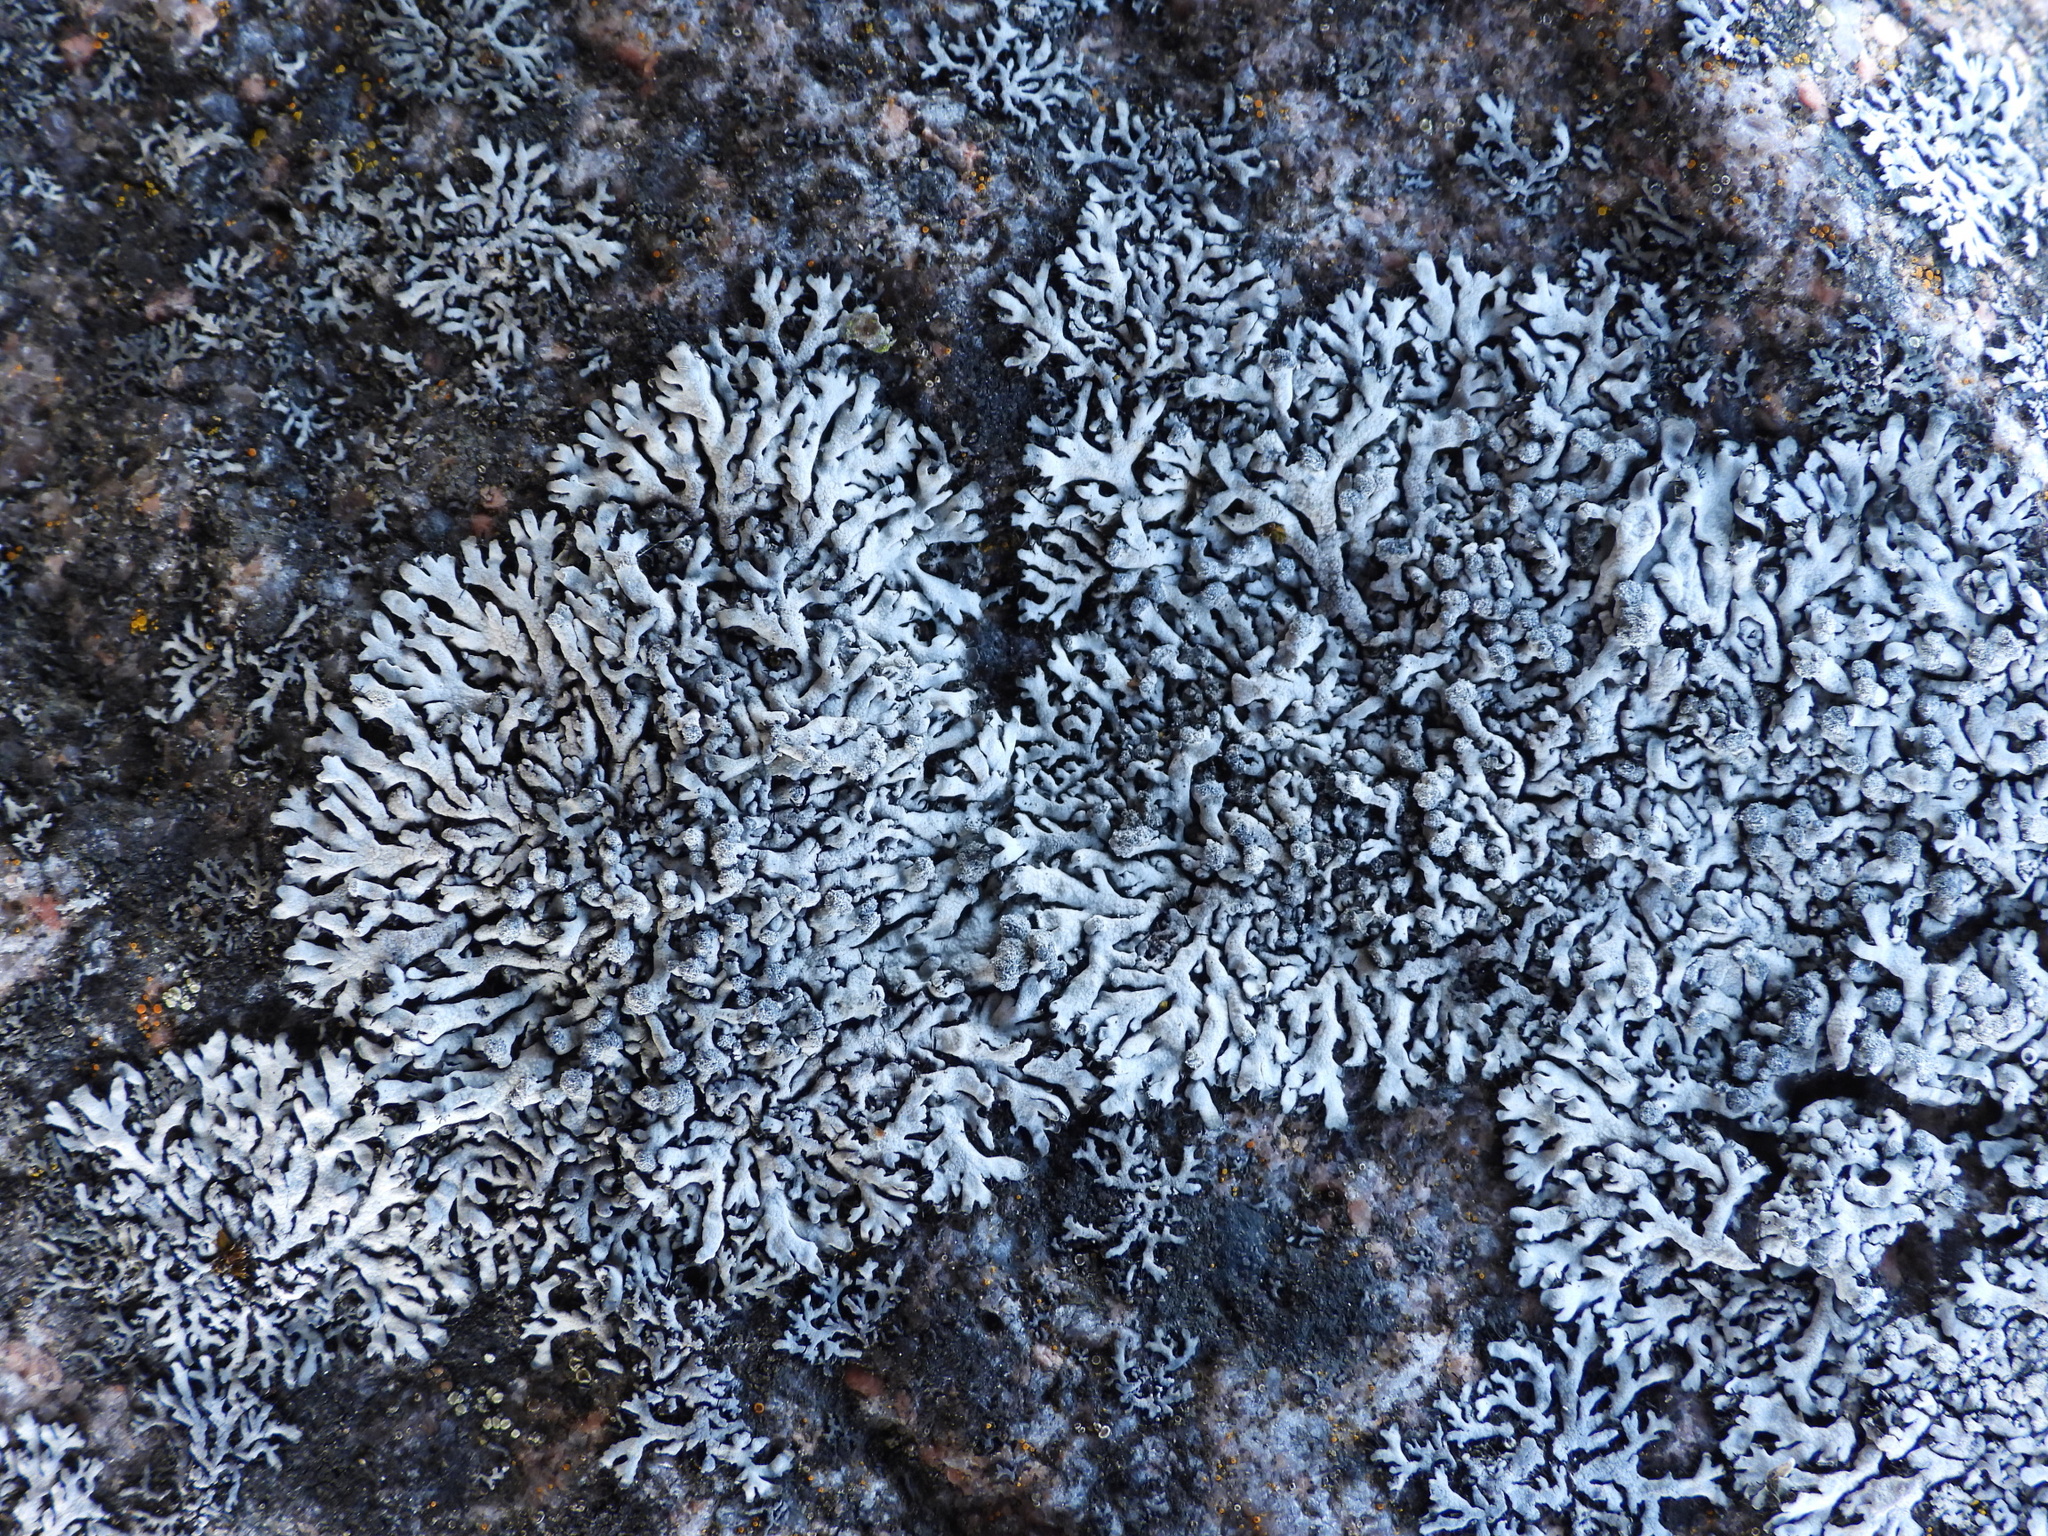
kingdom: Fungi
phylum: Ascomycota
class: Lecanoromycetes
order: Caliciales
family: Physciaceae
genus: Physcia
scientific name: Physcia caesia
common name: Blue-gray rosette lichen
